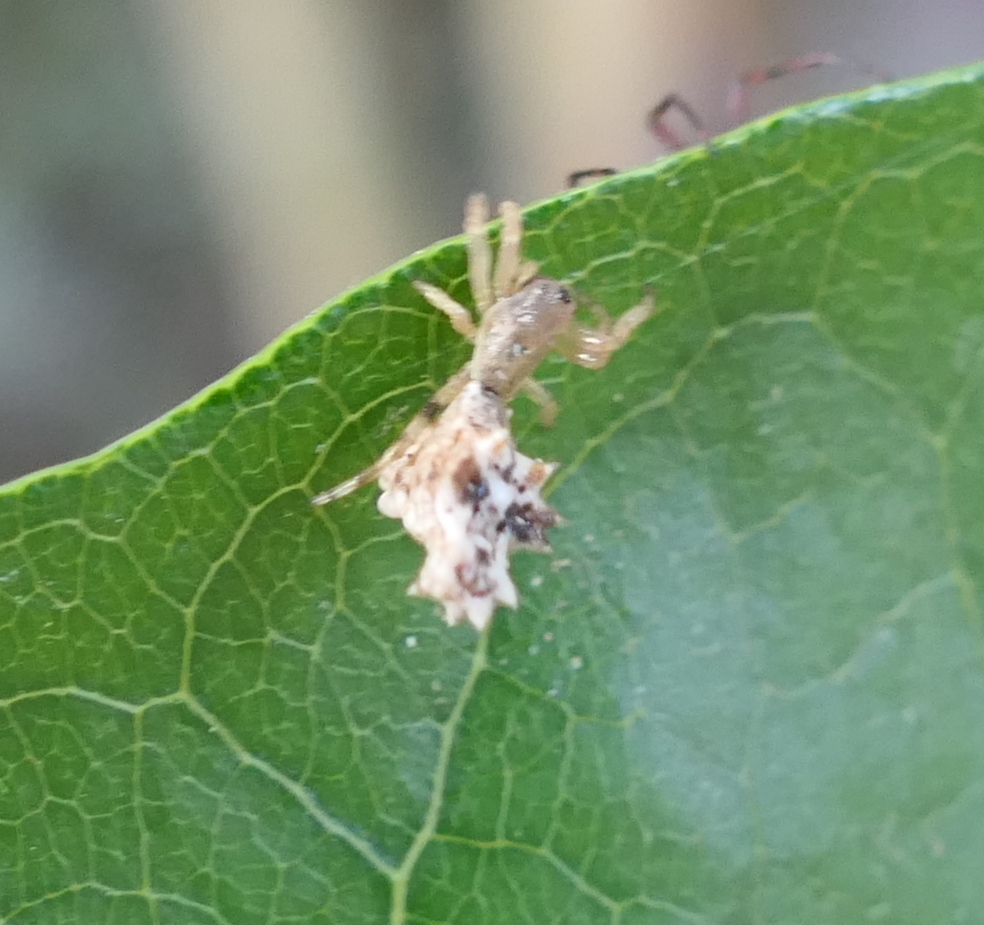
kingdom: Animalia
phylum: Arthropoda
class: Arachnida
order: Araneae
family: Araneidae
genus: Micrathena
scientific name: Micrathena horrida
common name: Orb weavers
